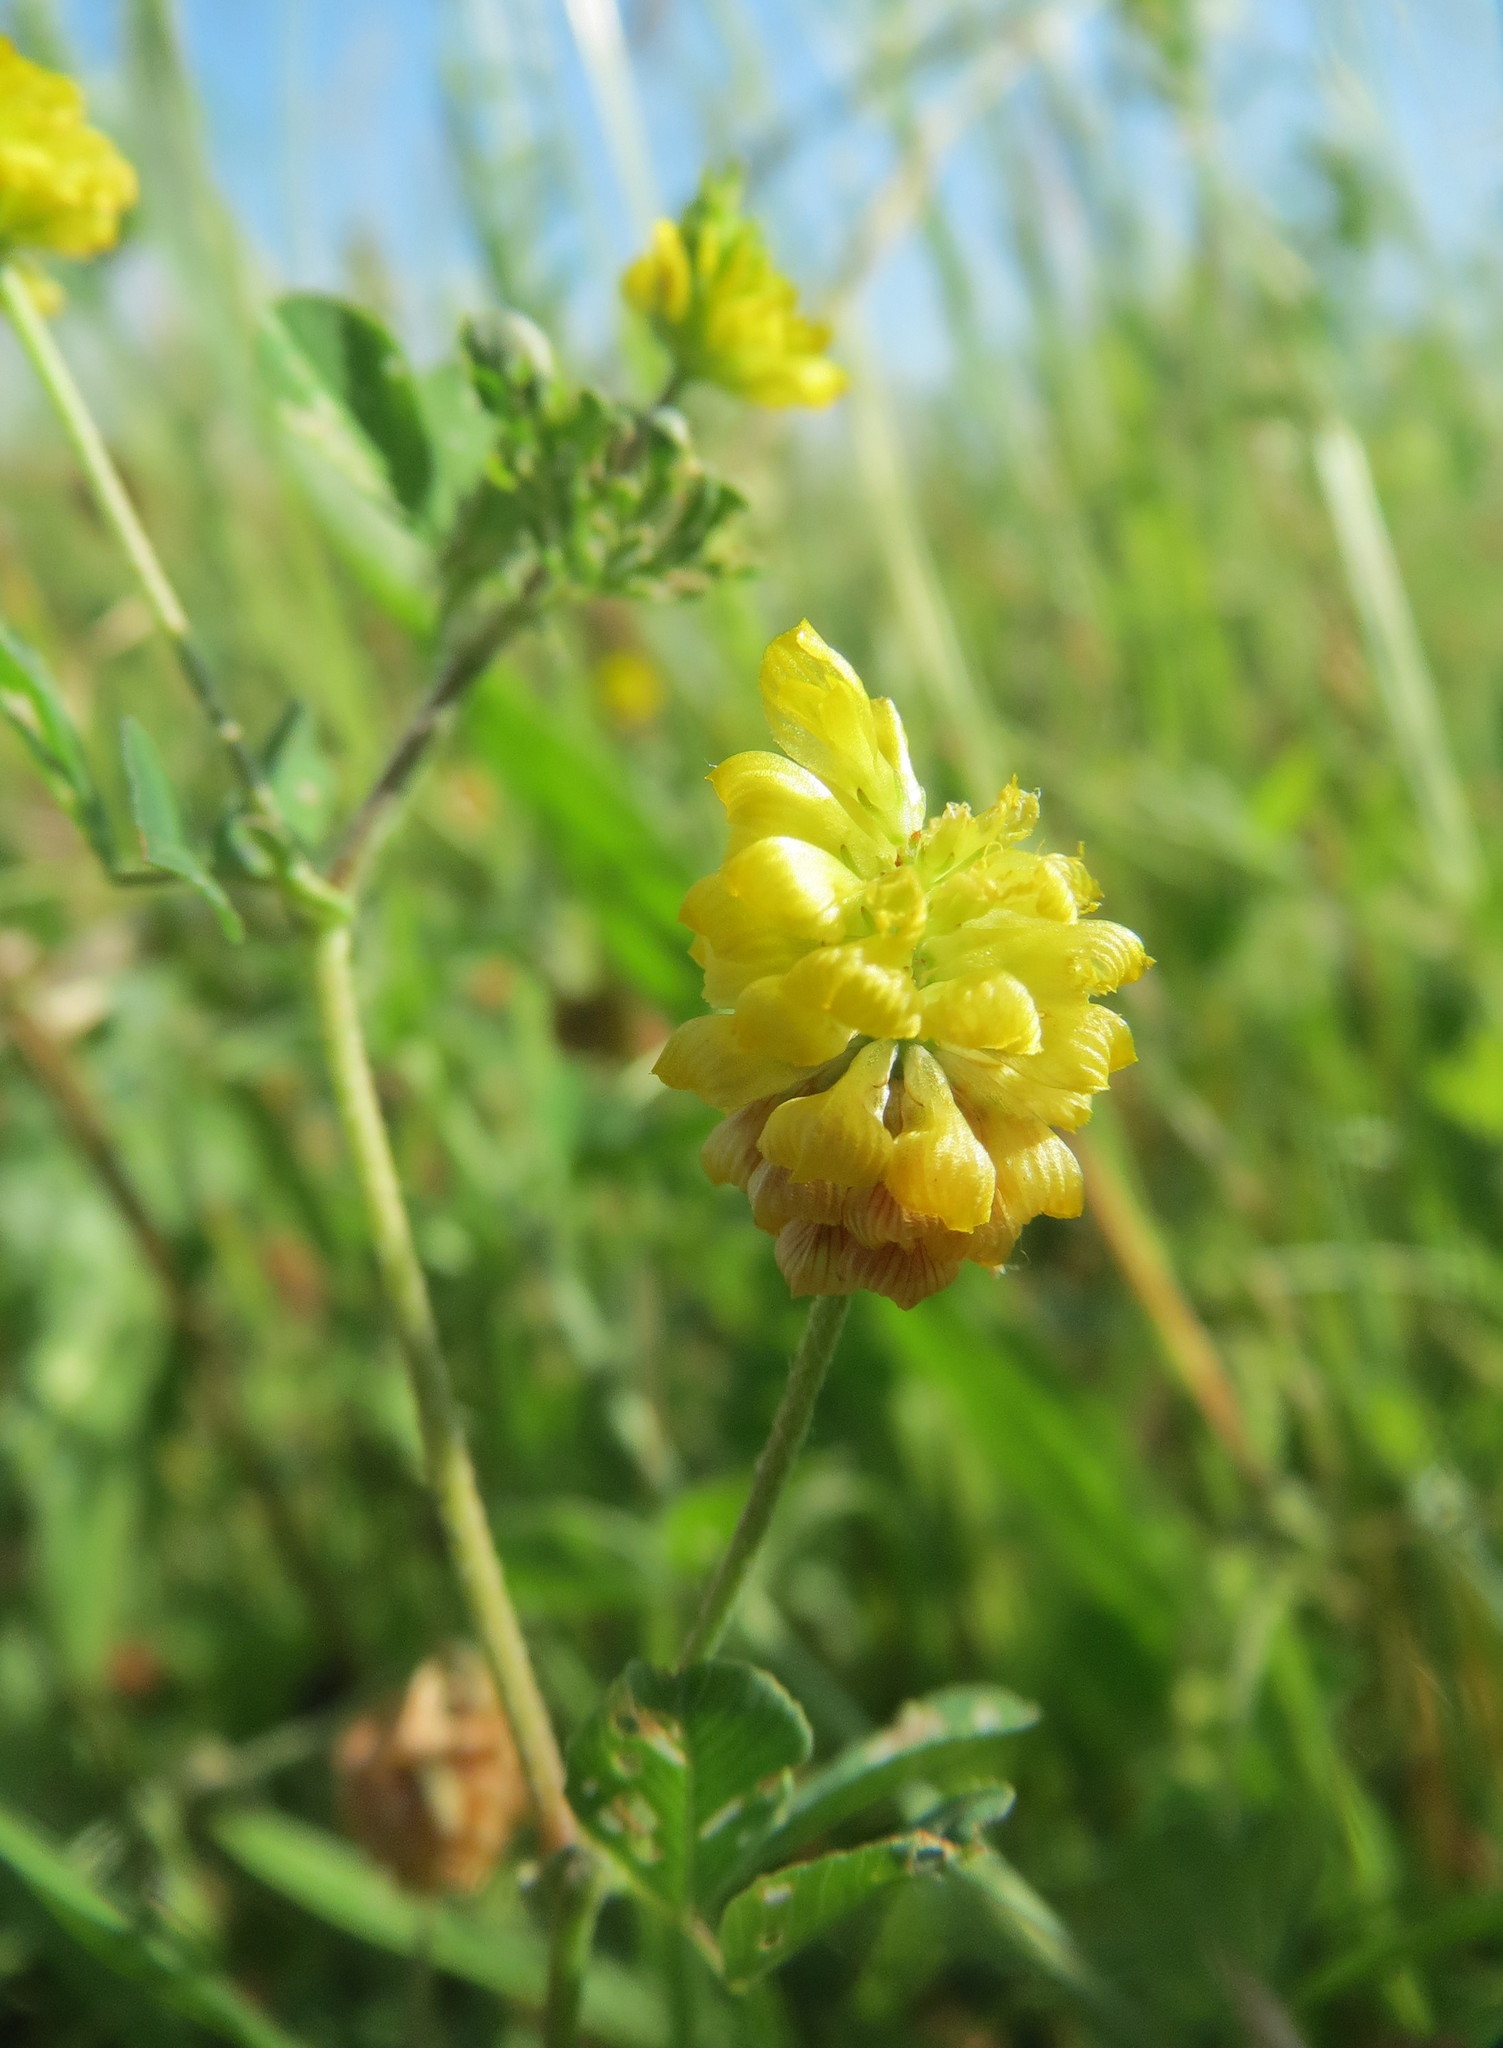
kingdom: Plantae
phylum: Tracheophyta
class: Magnoliopsida
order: Fabales
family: Fabaceae
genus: Trifolium
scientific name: Trifolium campestre
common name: Field clover
